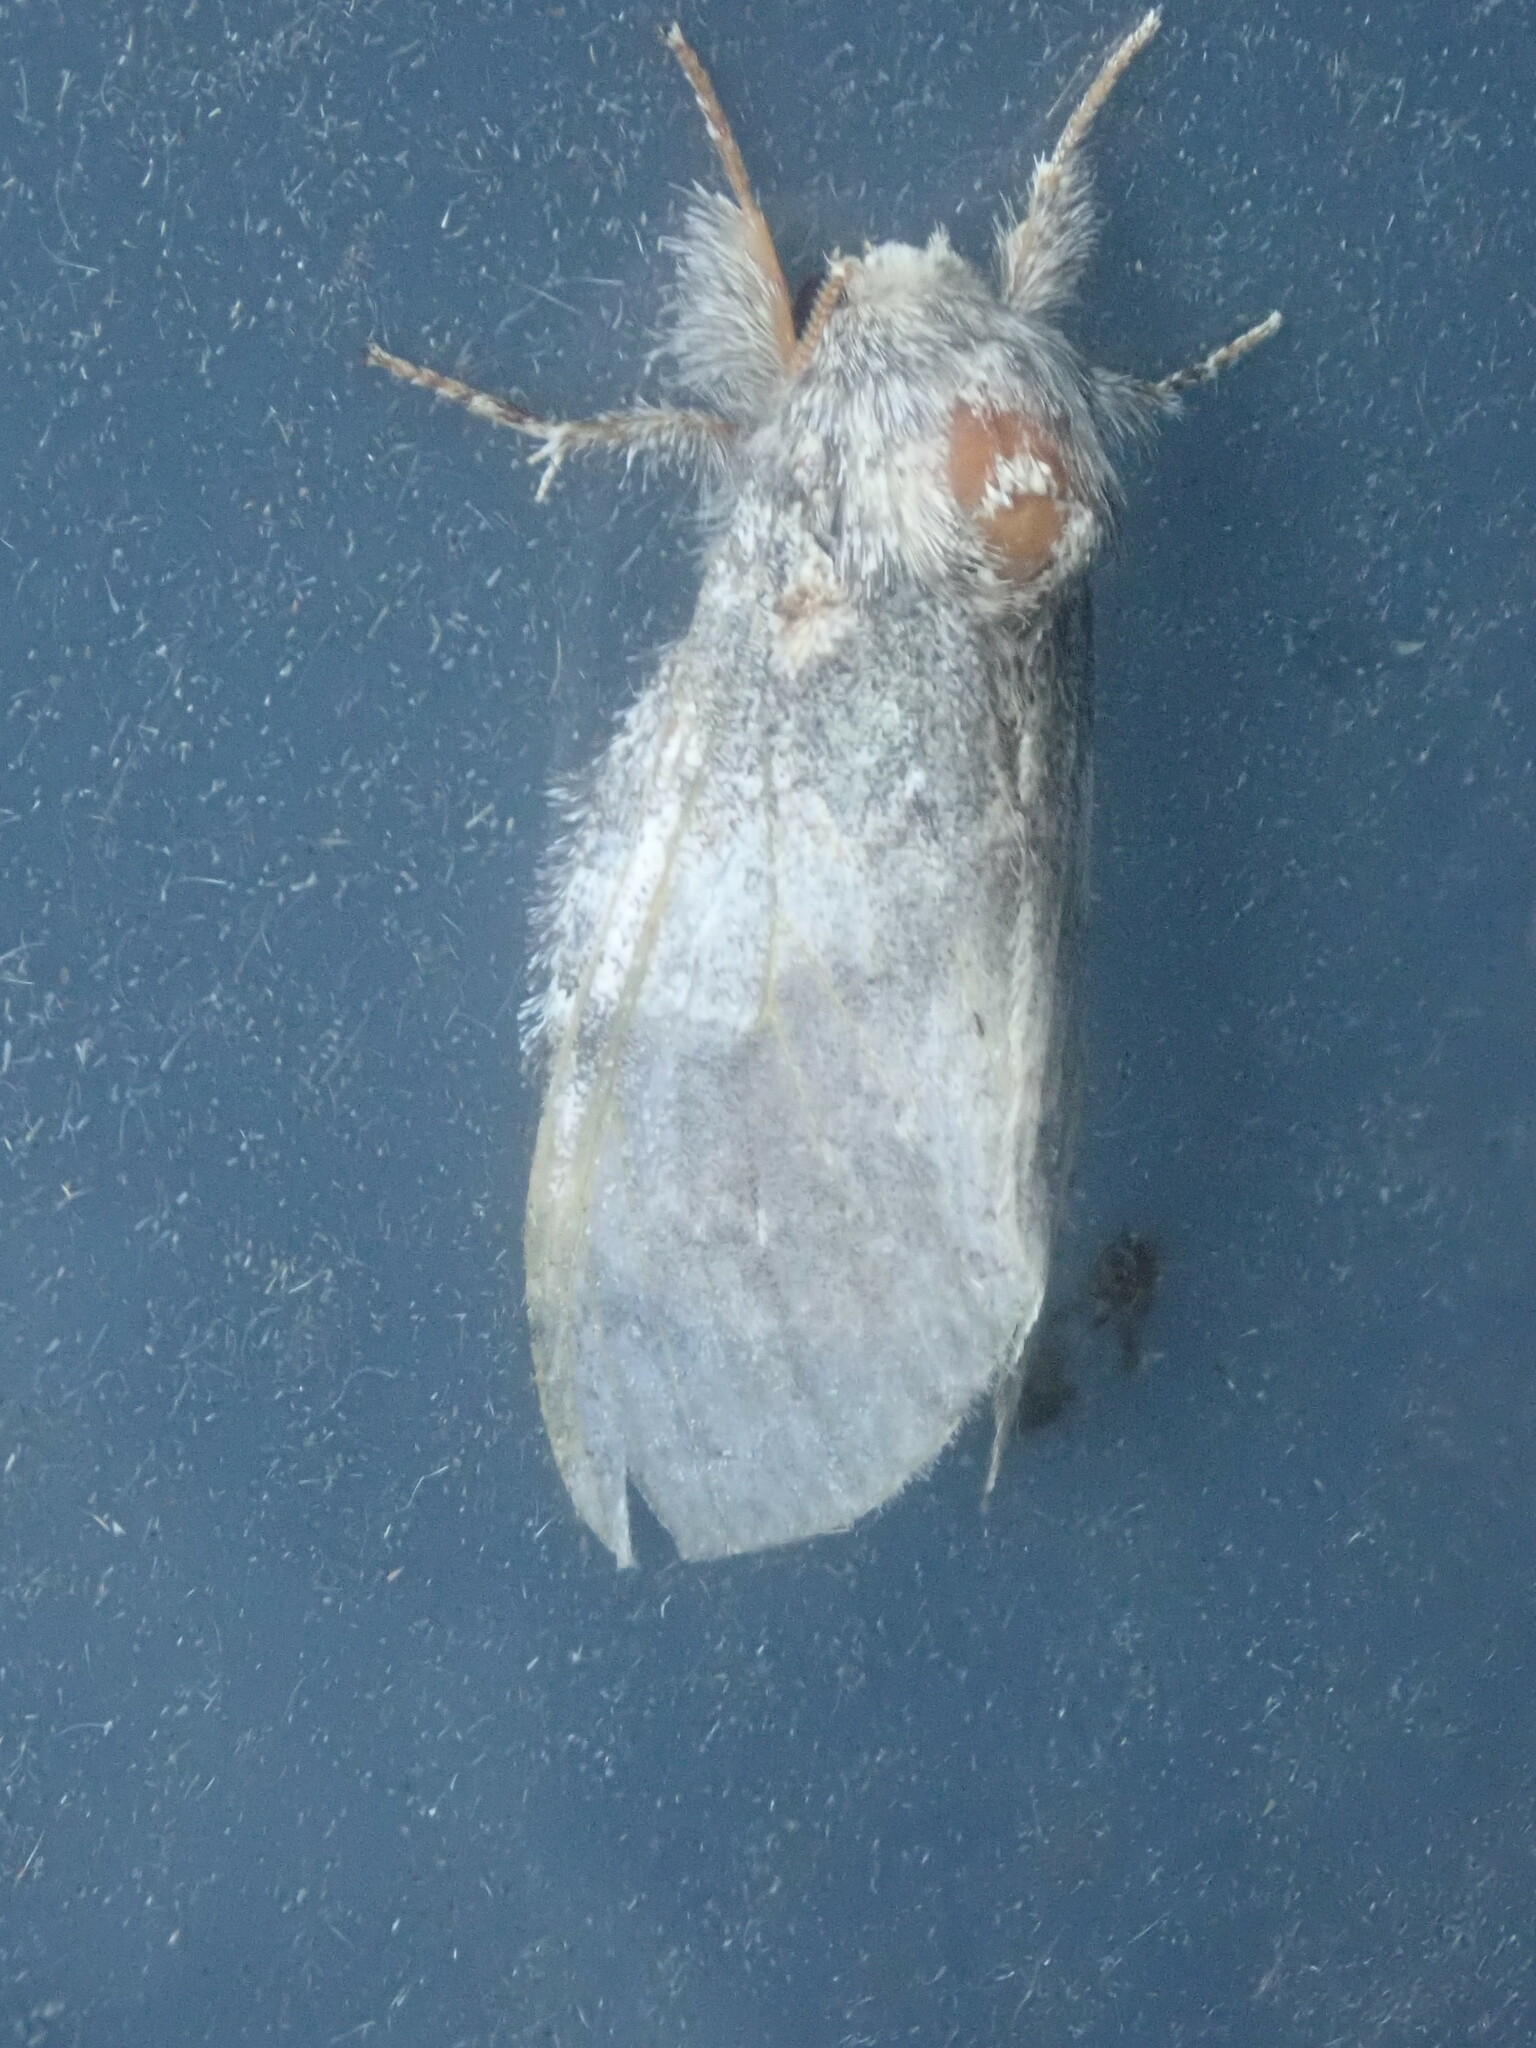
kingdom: Animalia
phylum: Arthropoda
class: Insecta
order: Lepidoptera
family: Notodontidae
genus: Peridea
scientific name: Peridea angulosa
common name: Angulose prominent
